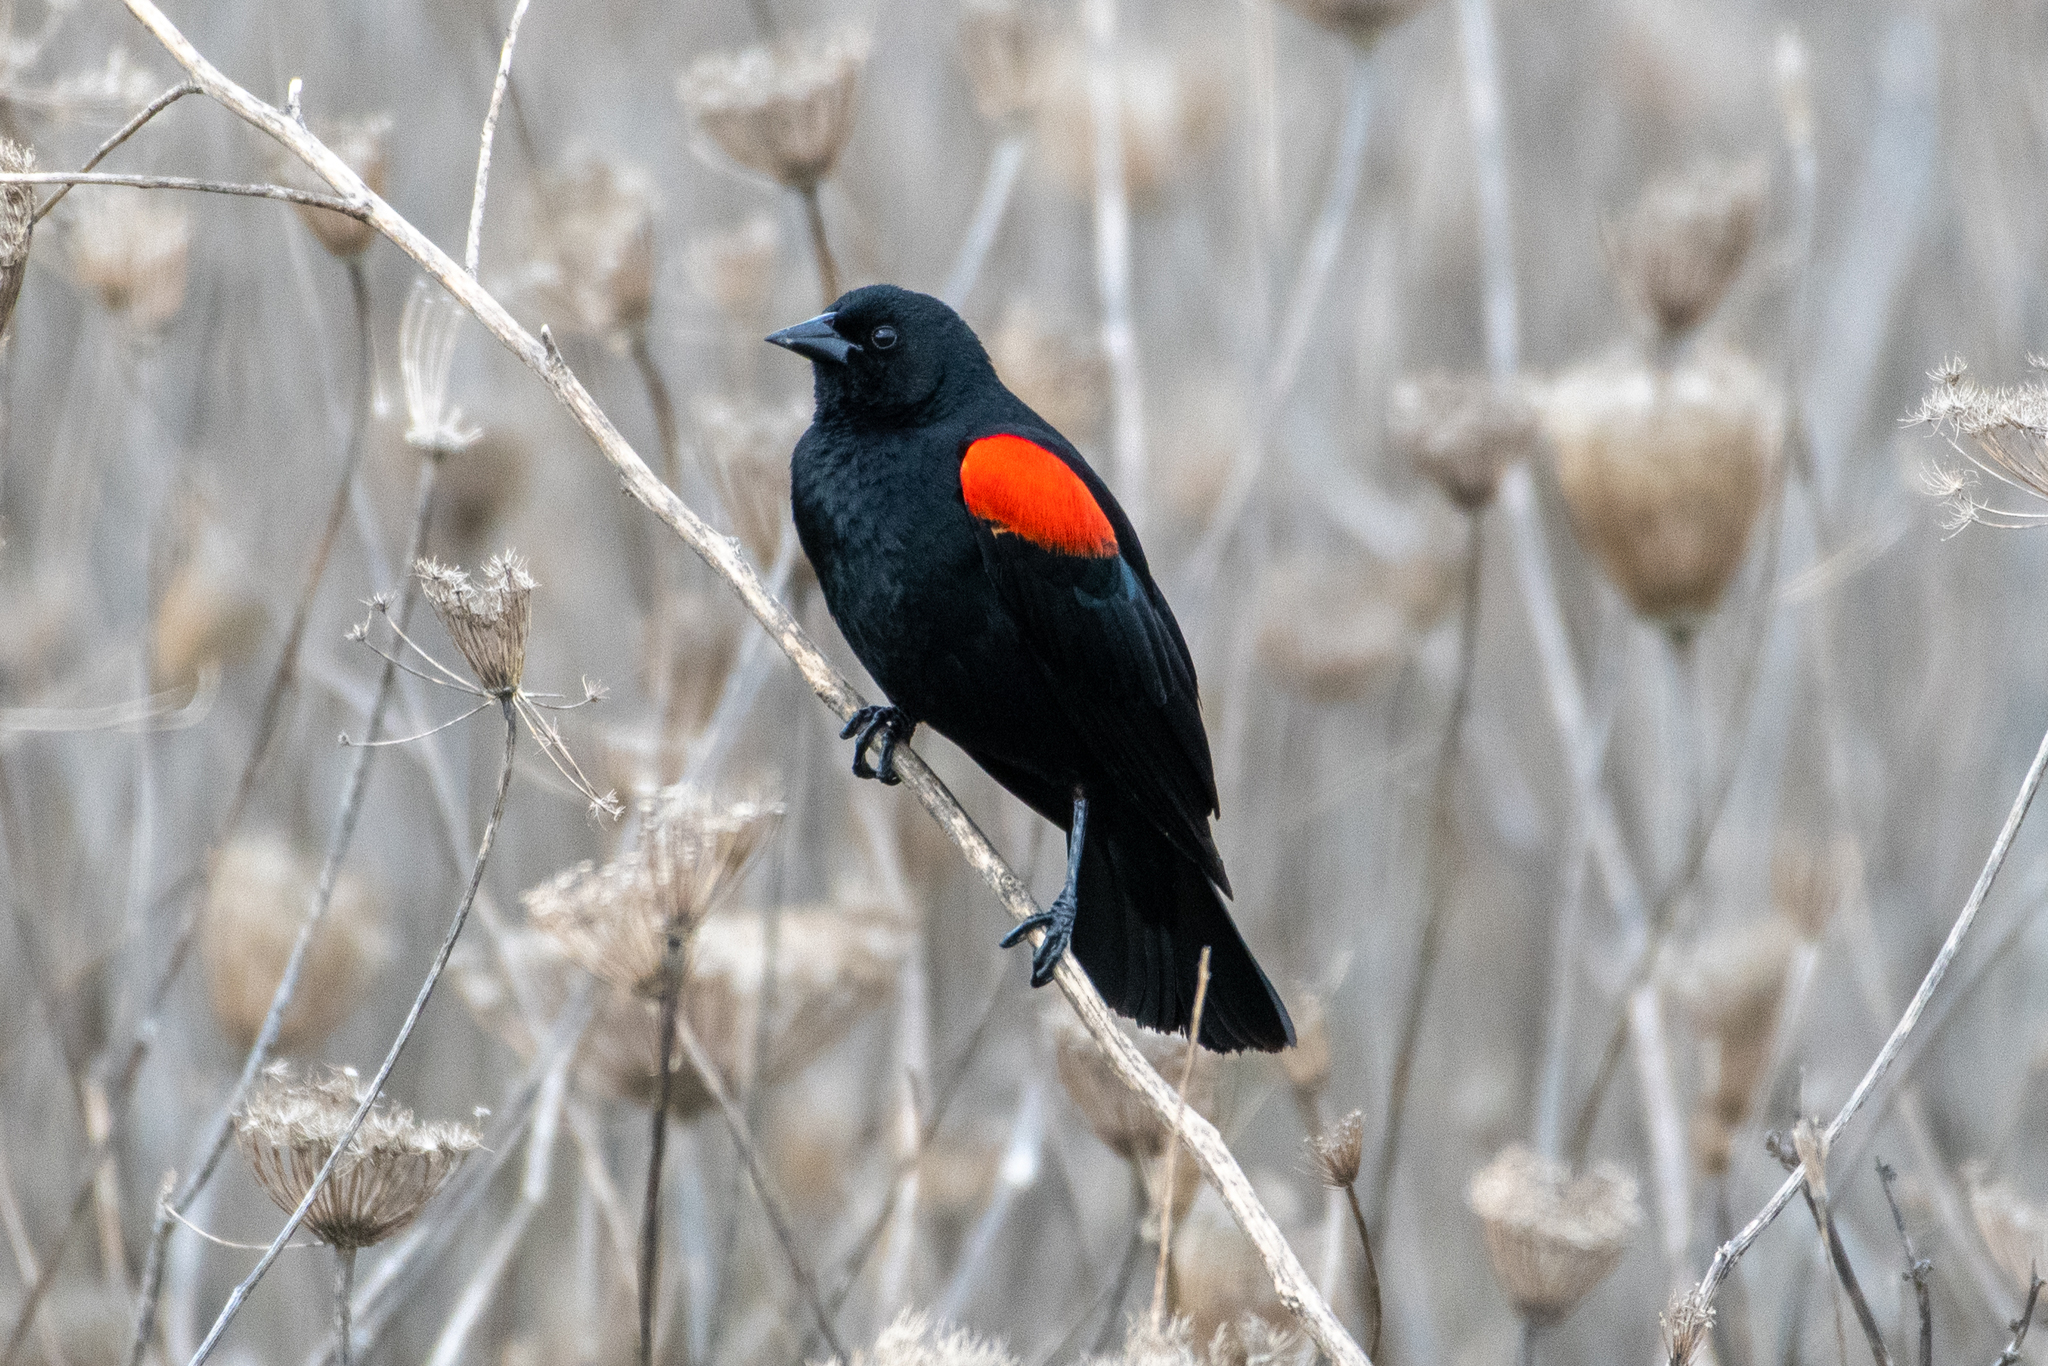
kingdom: Animalia
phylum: Chordata
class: Aves
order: Passeriformes
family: Icteridae
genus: Agelaius
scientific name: Agelaius phoeniceus
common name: Red-winged blackbird
